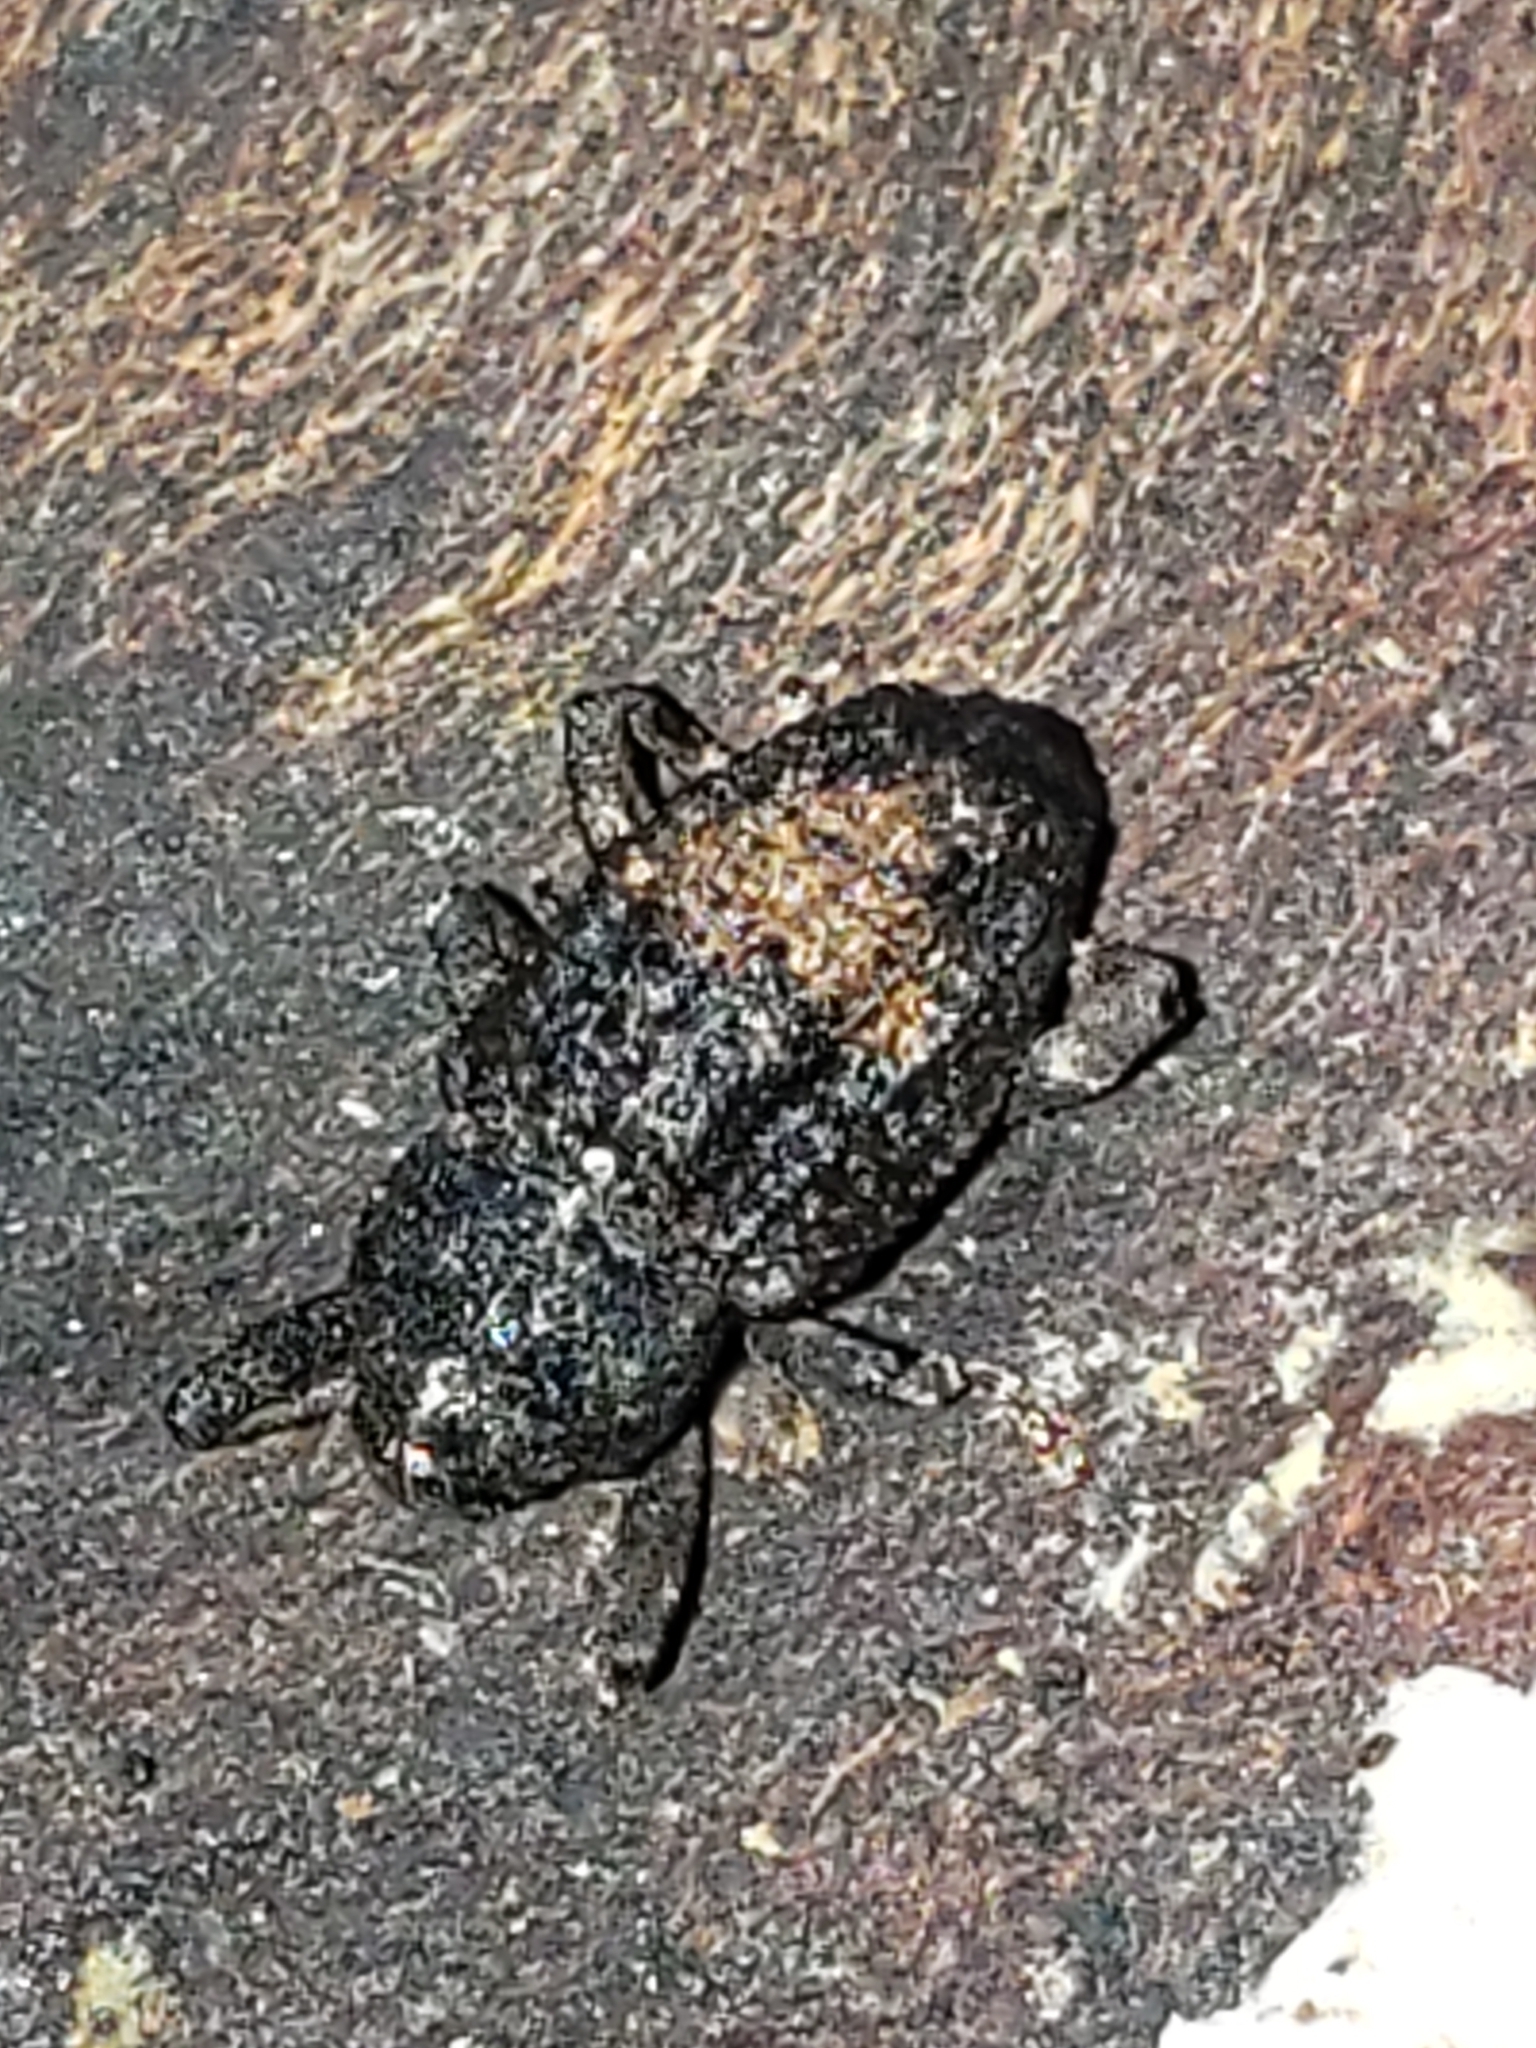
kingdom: Animalia
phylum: Arthropoda
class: Insecta
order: Coleoptera
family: Curculionidae
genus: Cophes
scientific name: Cophes obtentus
